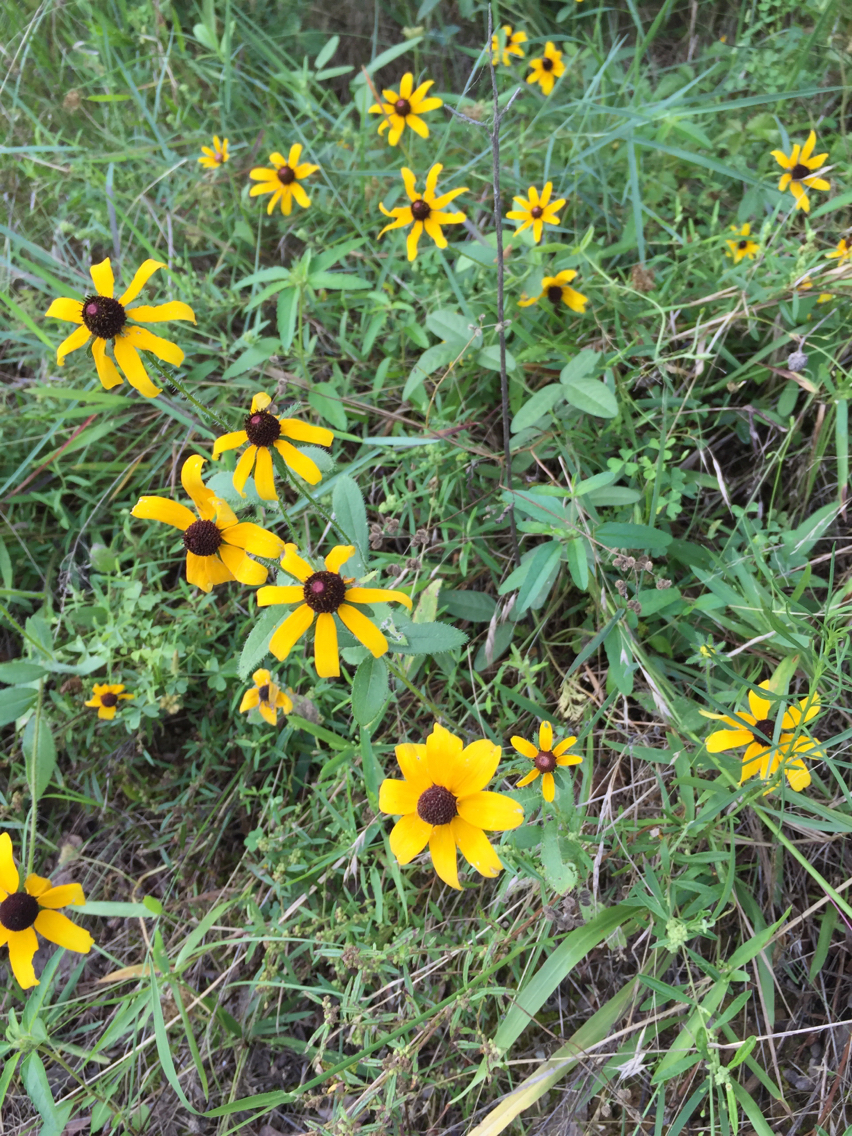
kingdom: Plantae
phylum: Tracheophyta
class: Magnoliopsida
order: Asterales
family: Asteraceae
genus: Rudbeckia
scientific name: Rudbeckia hirta
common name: Black-eyed-susan
